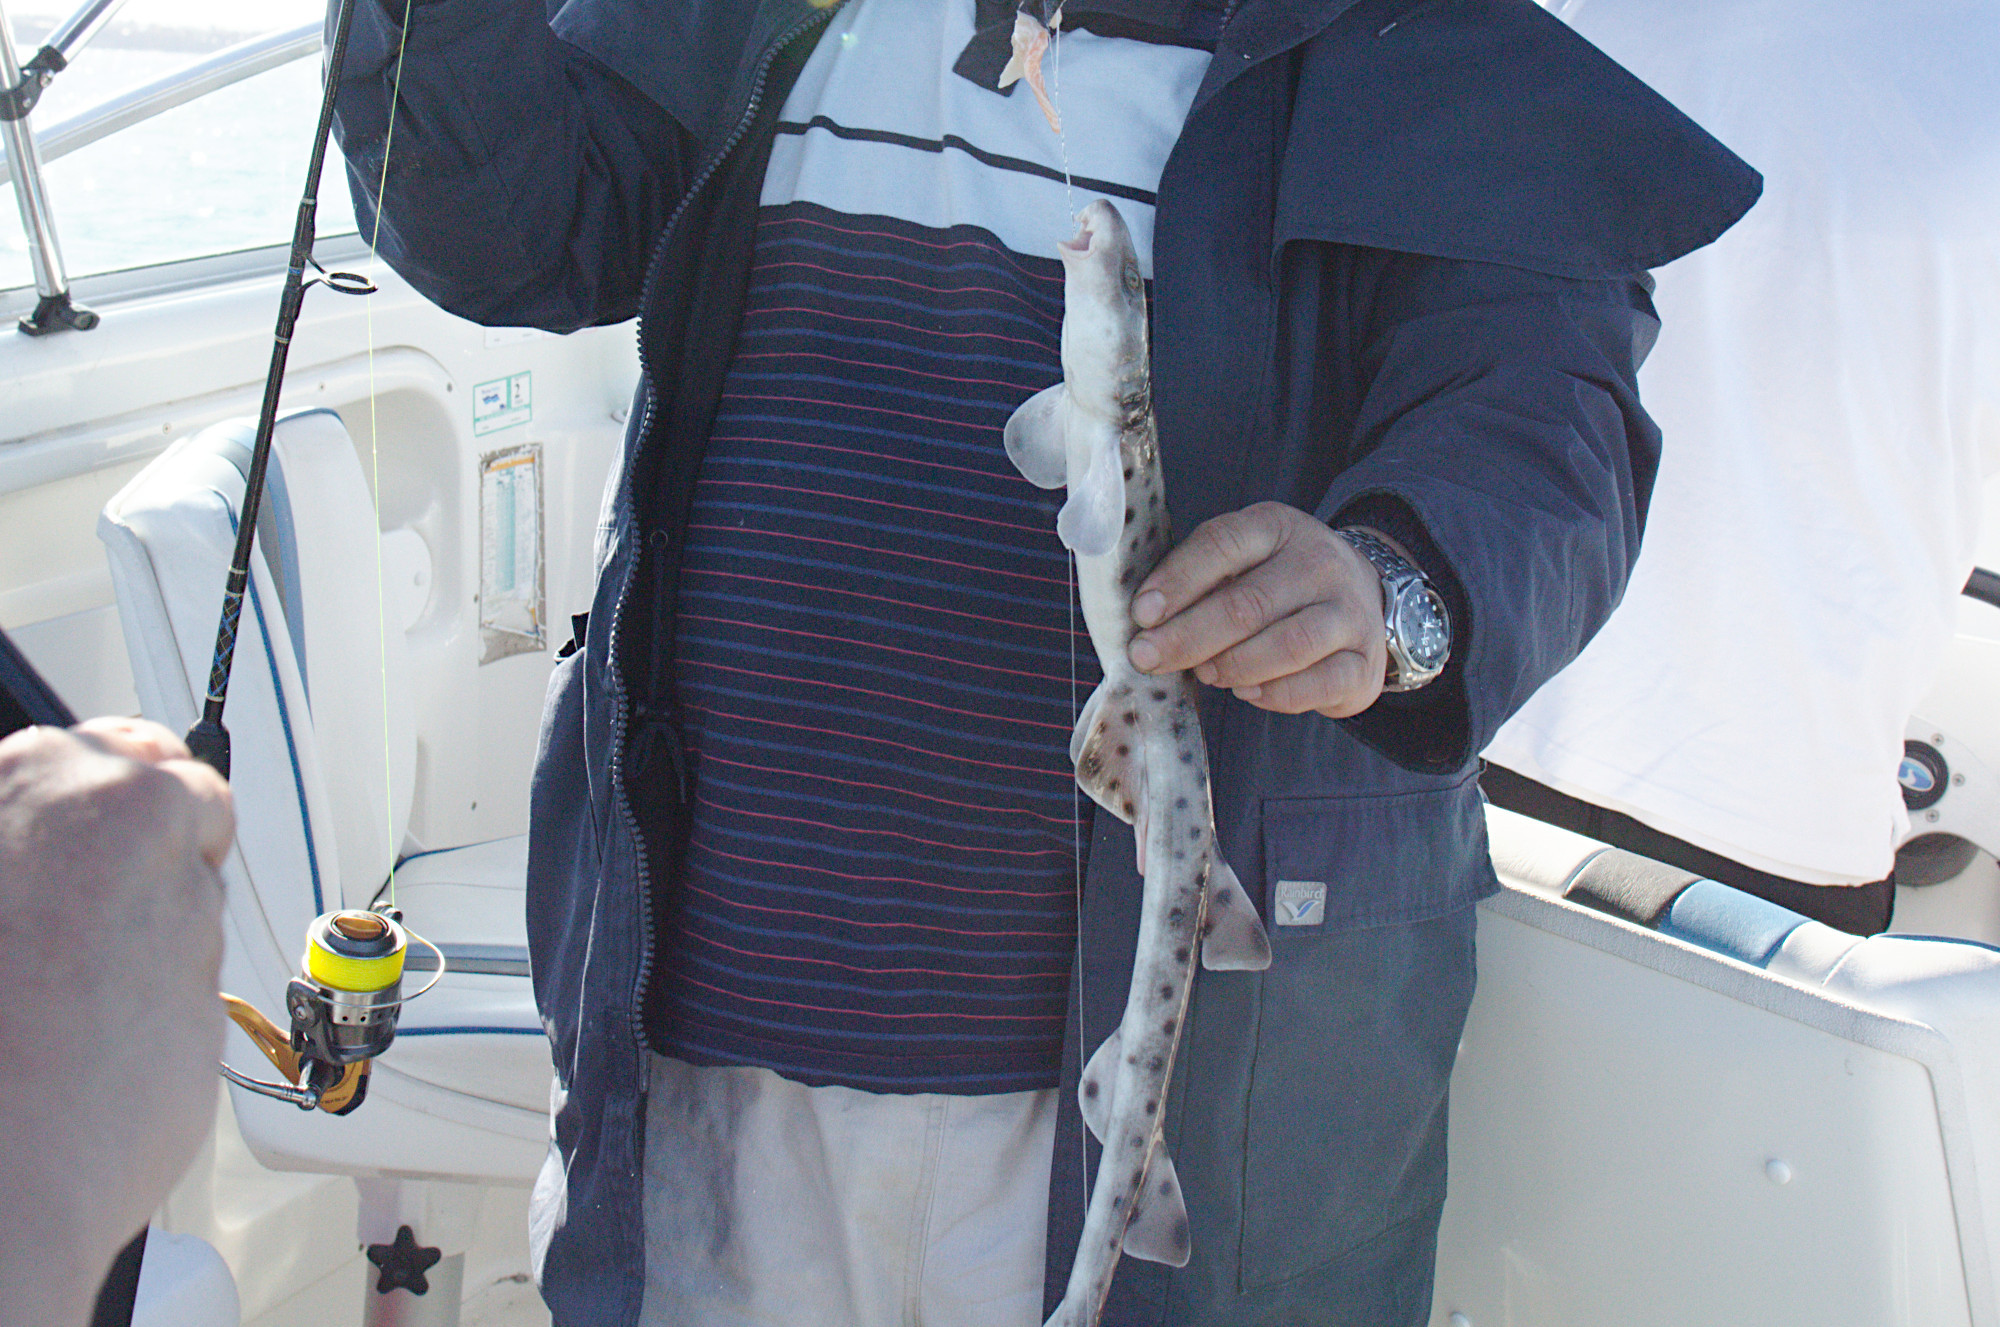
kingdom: Animalia
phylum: Chordata
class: Elasmobranchii
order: Orectolobiformes
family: Parascylliidae
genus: Parascyllium
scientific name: Parascyllium ferrugineum
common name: Rusty carpetshark
